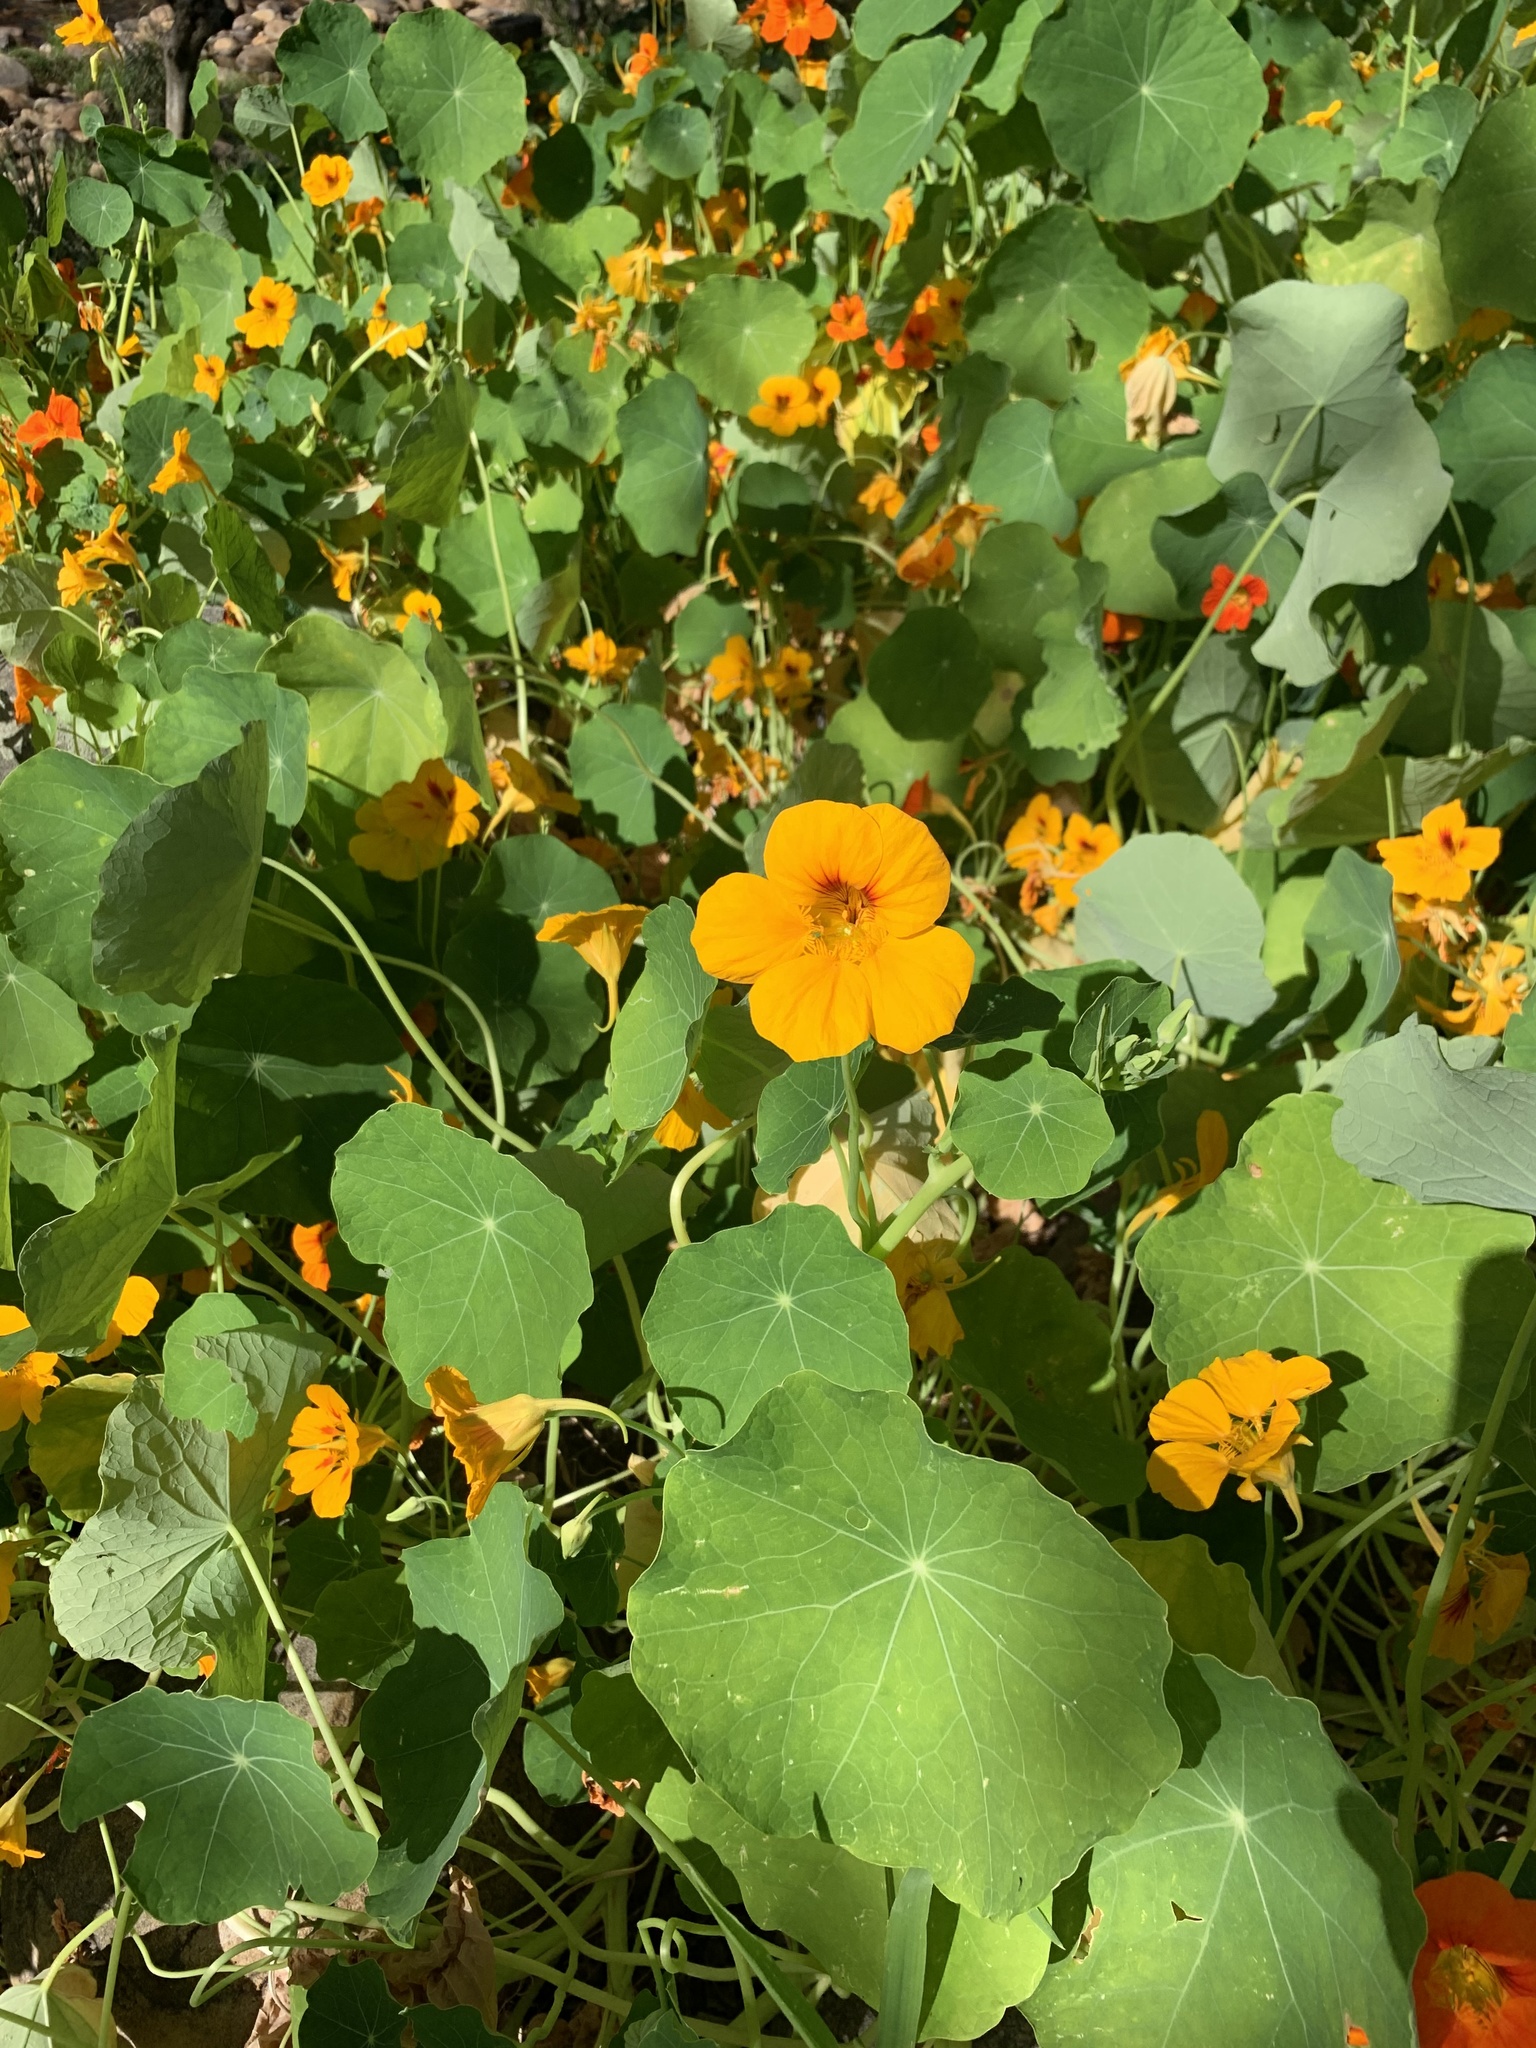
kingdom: Plantae
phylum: Tracheophyta
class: Magnoliopsida
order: Brassicales
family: Tropaeolaceae
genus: Tropaeolum
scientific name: Tropaeolum majus
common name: Nasturtium
